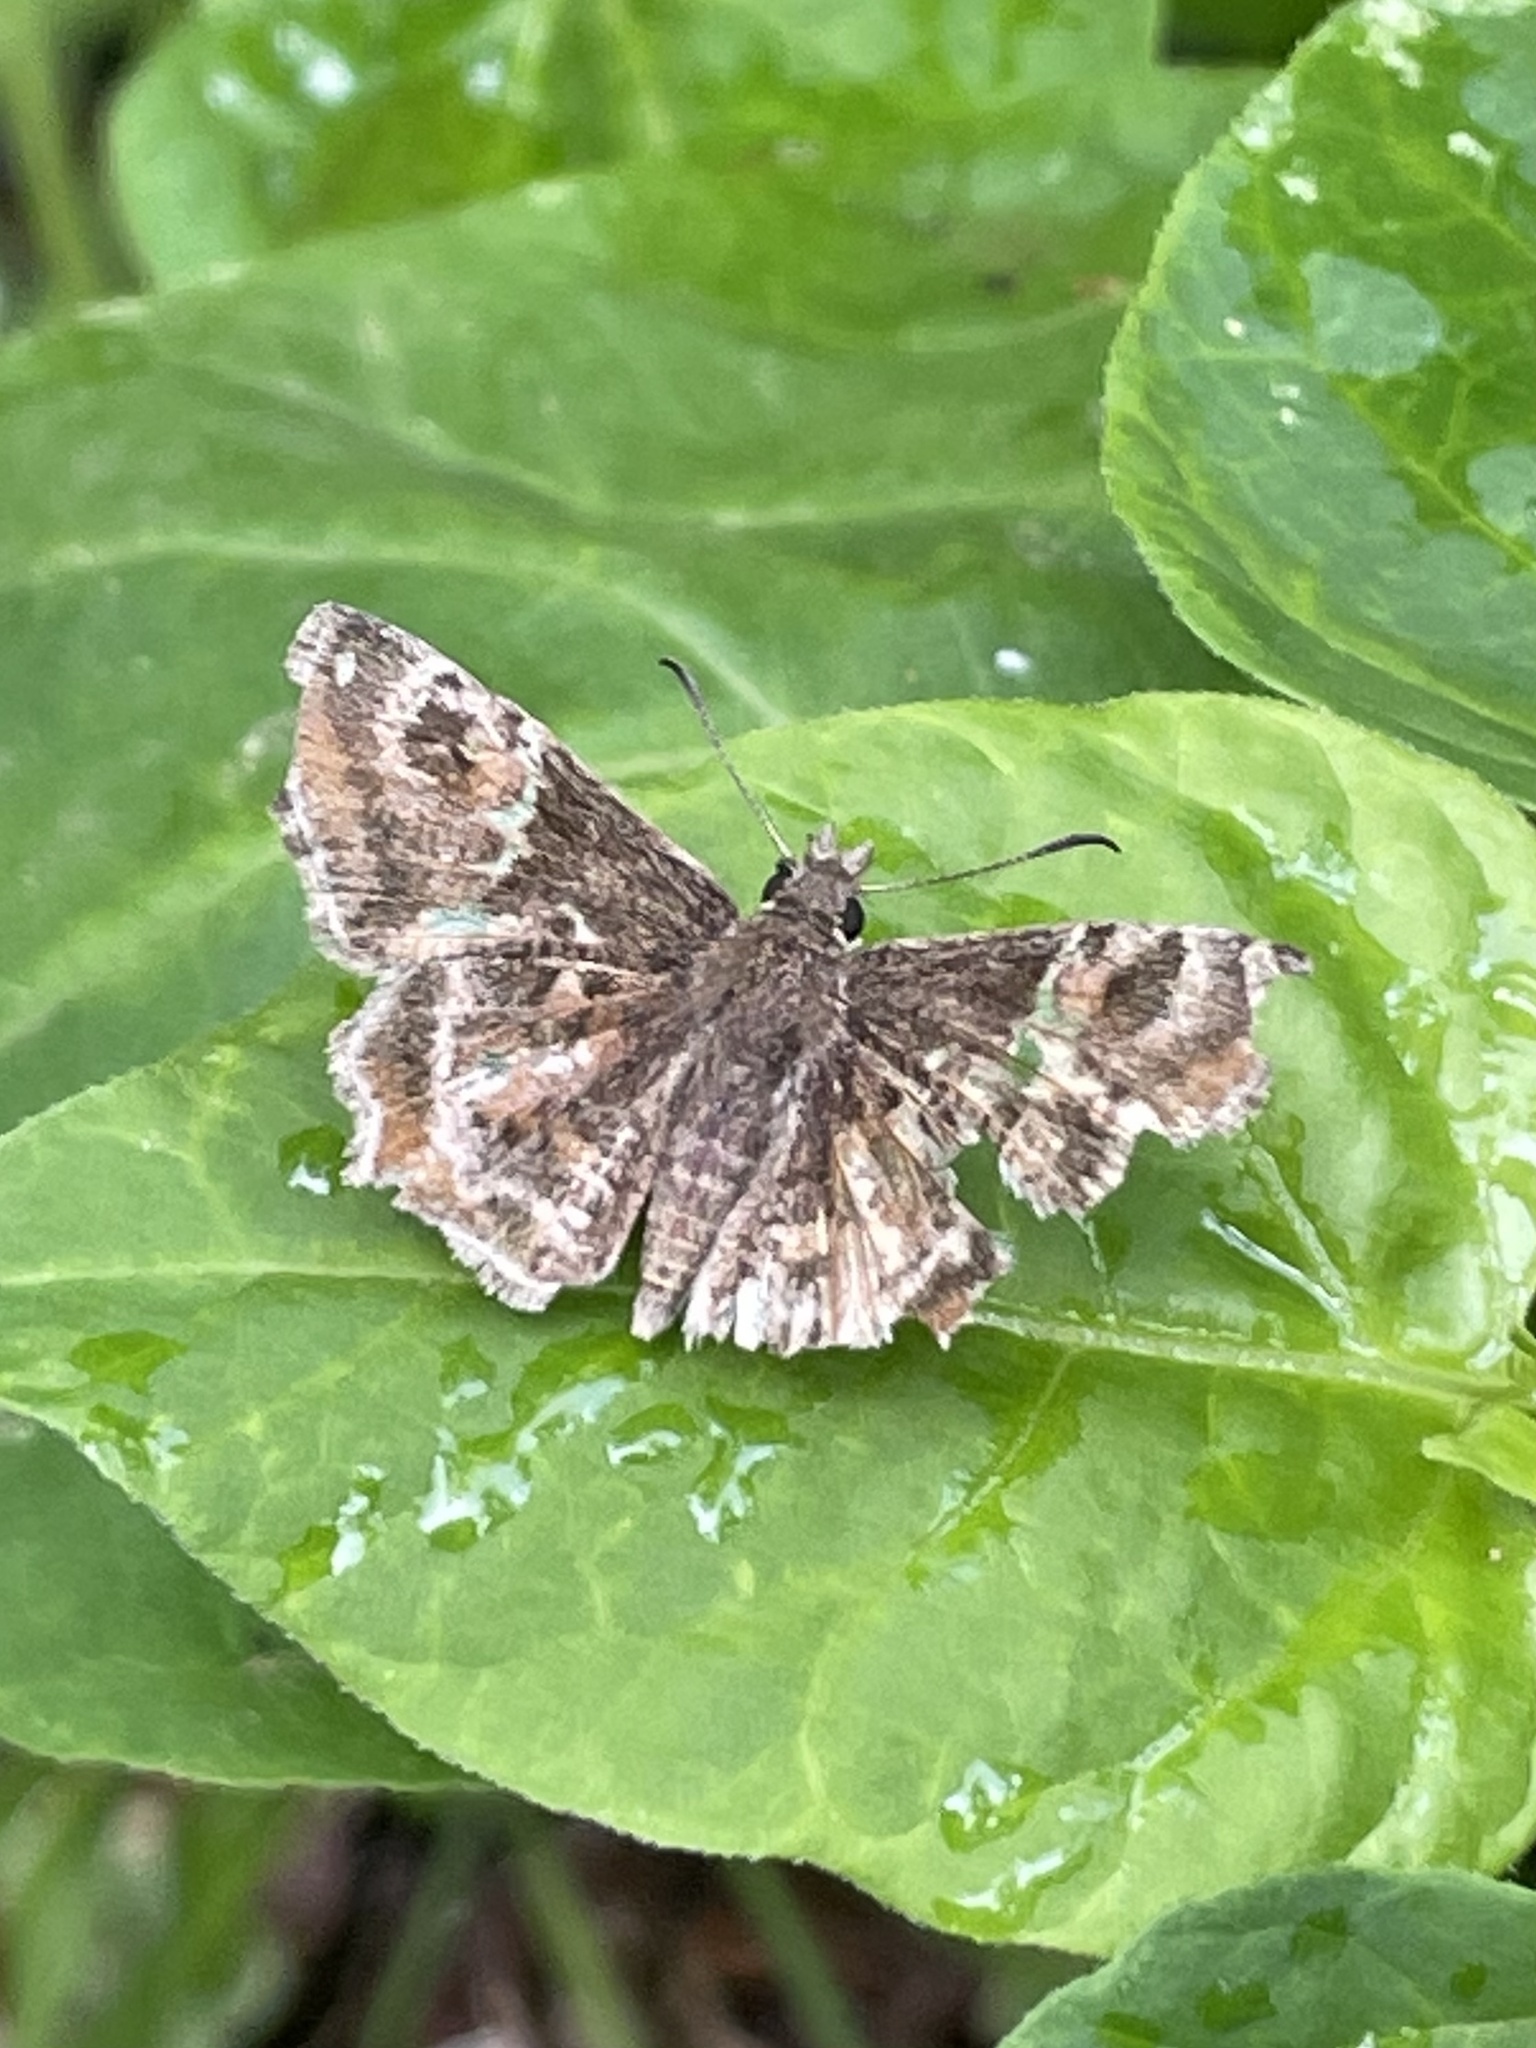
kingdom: Animalia
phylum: Arthropoda
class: Insecta
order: Lepidoptera
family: Hesperiidae
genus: Systasea
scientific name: Systasea pulverulenta
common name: Texas powdered skipper
